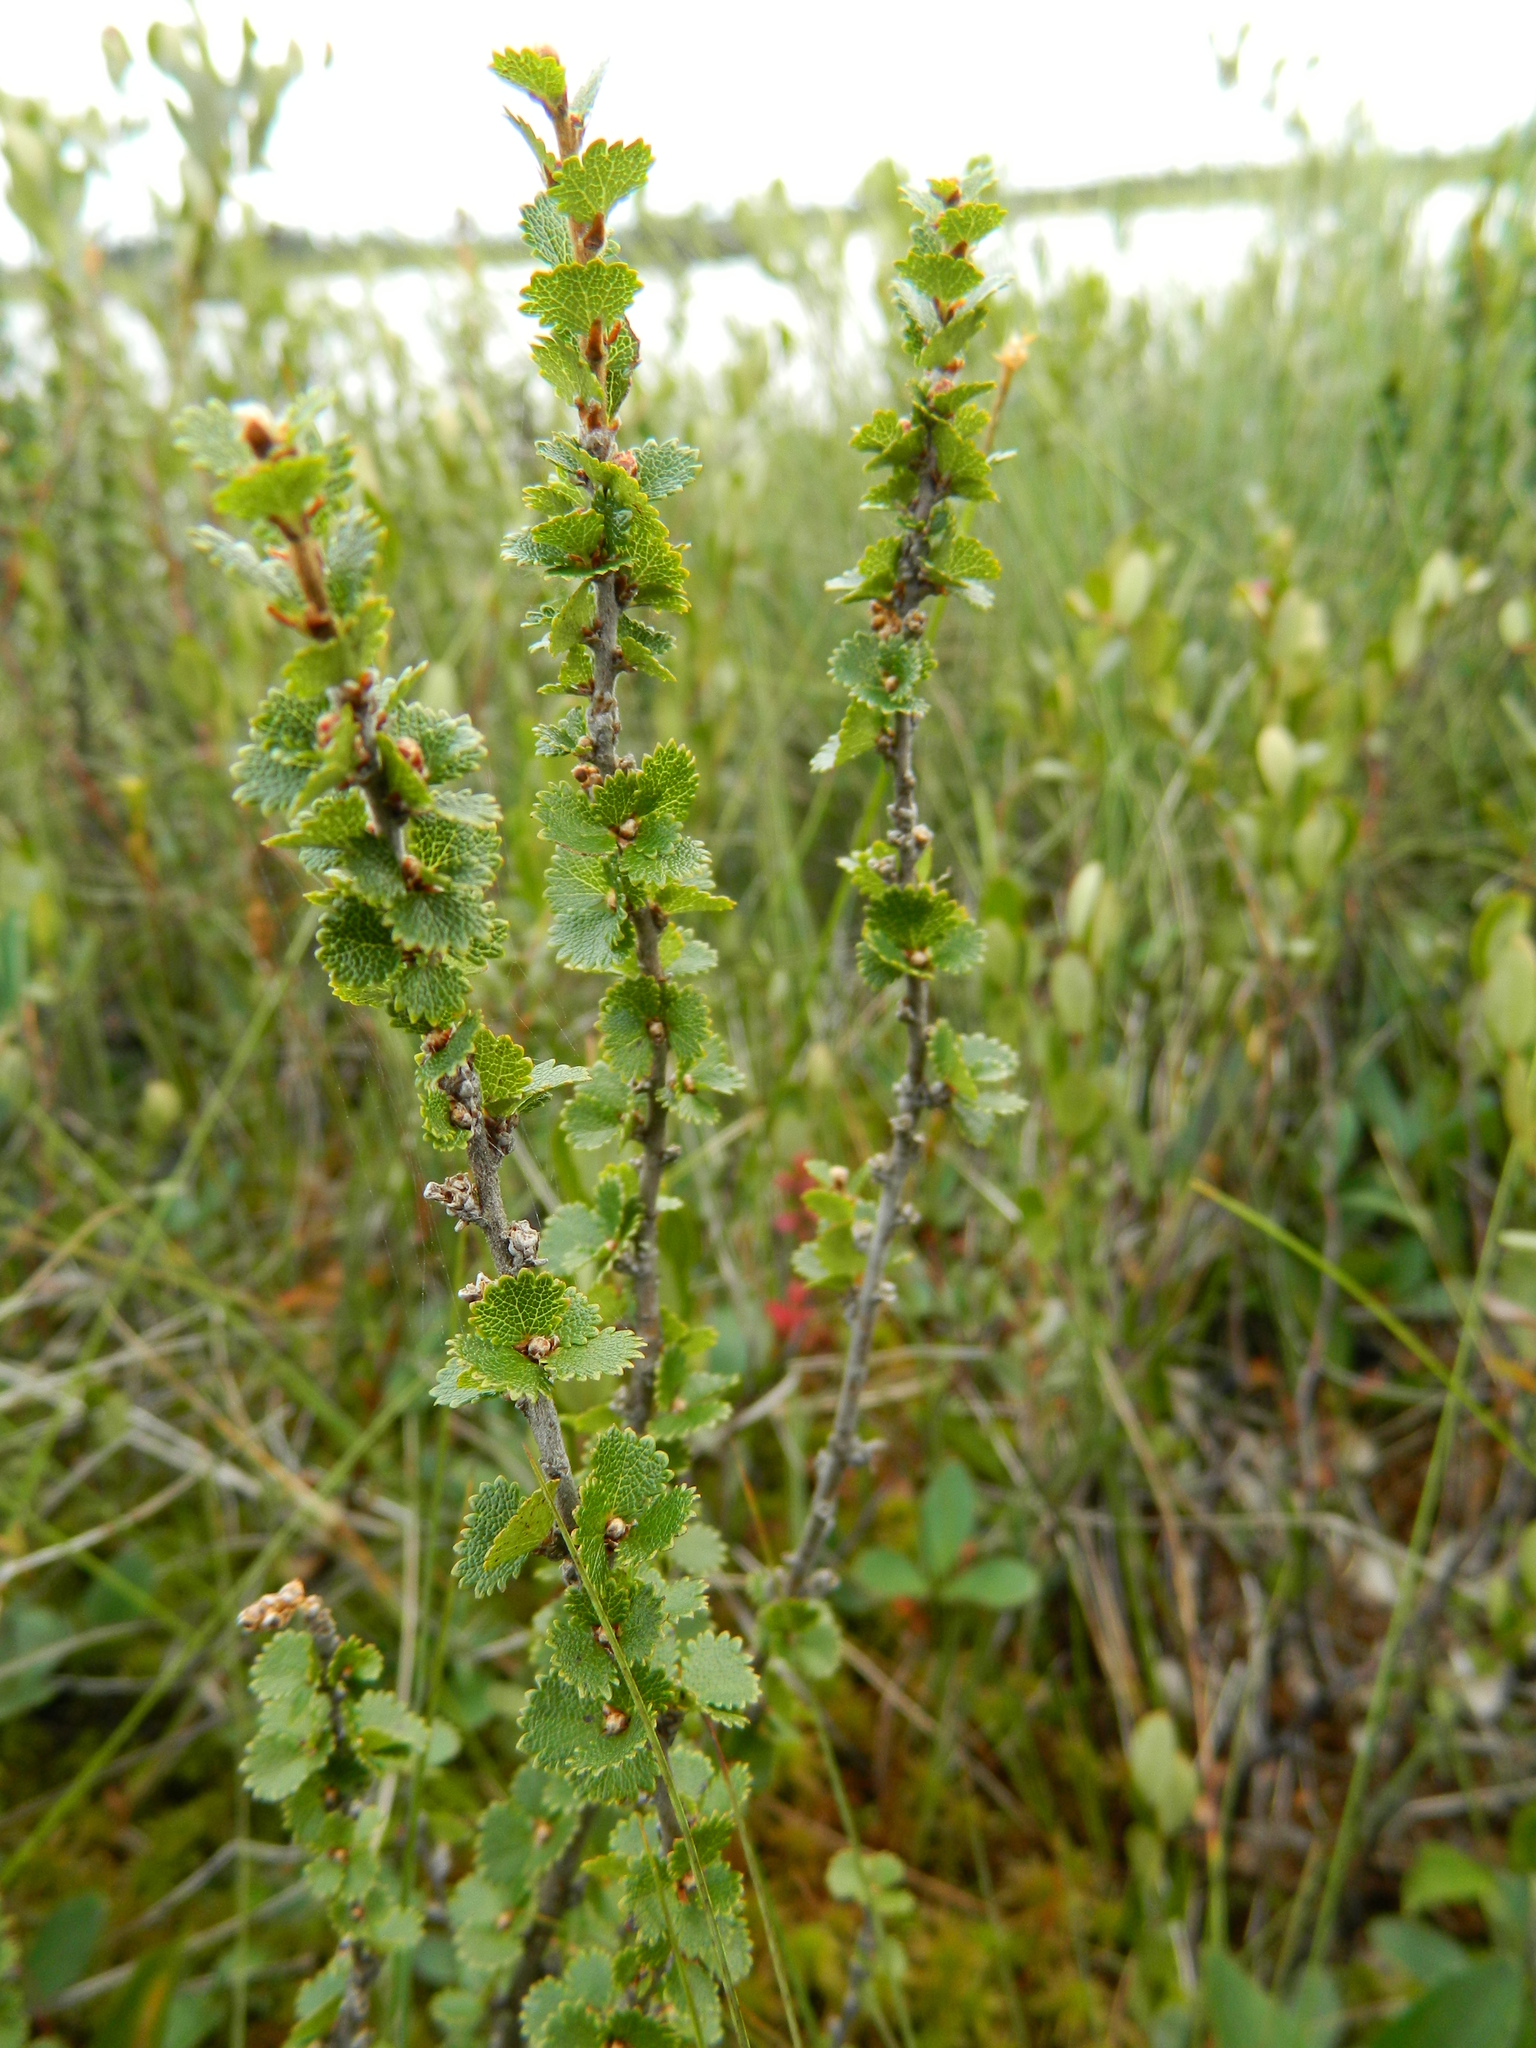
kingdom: Plantae
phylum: Tracheophyta
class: Magnoliopsida
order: Fagales
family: Betulaceae
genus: Betula
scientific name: Betula michauxii
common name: Newfoundland dwarf birch
